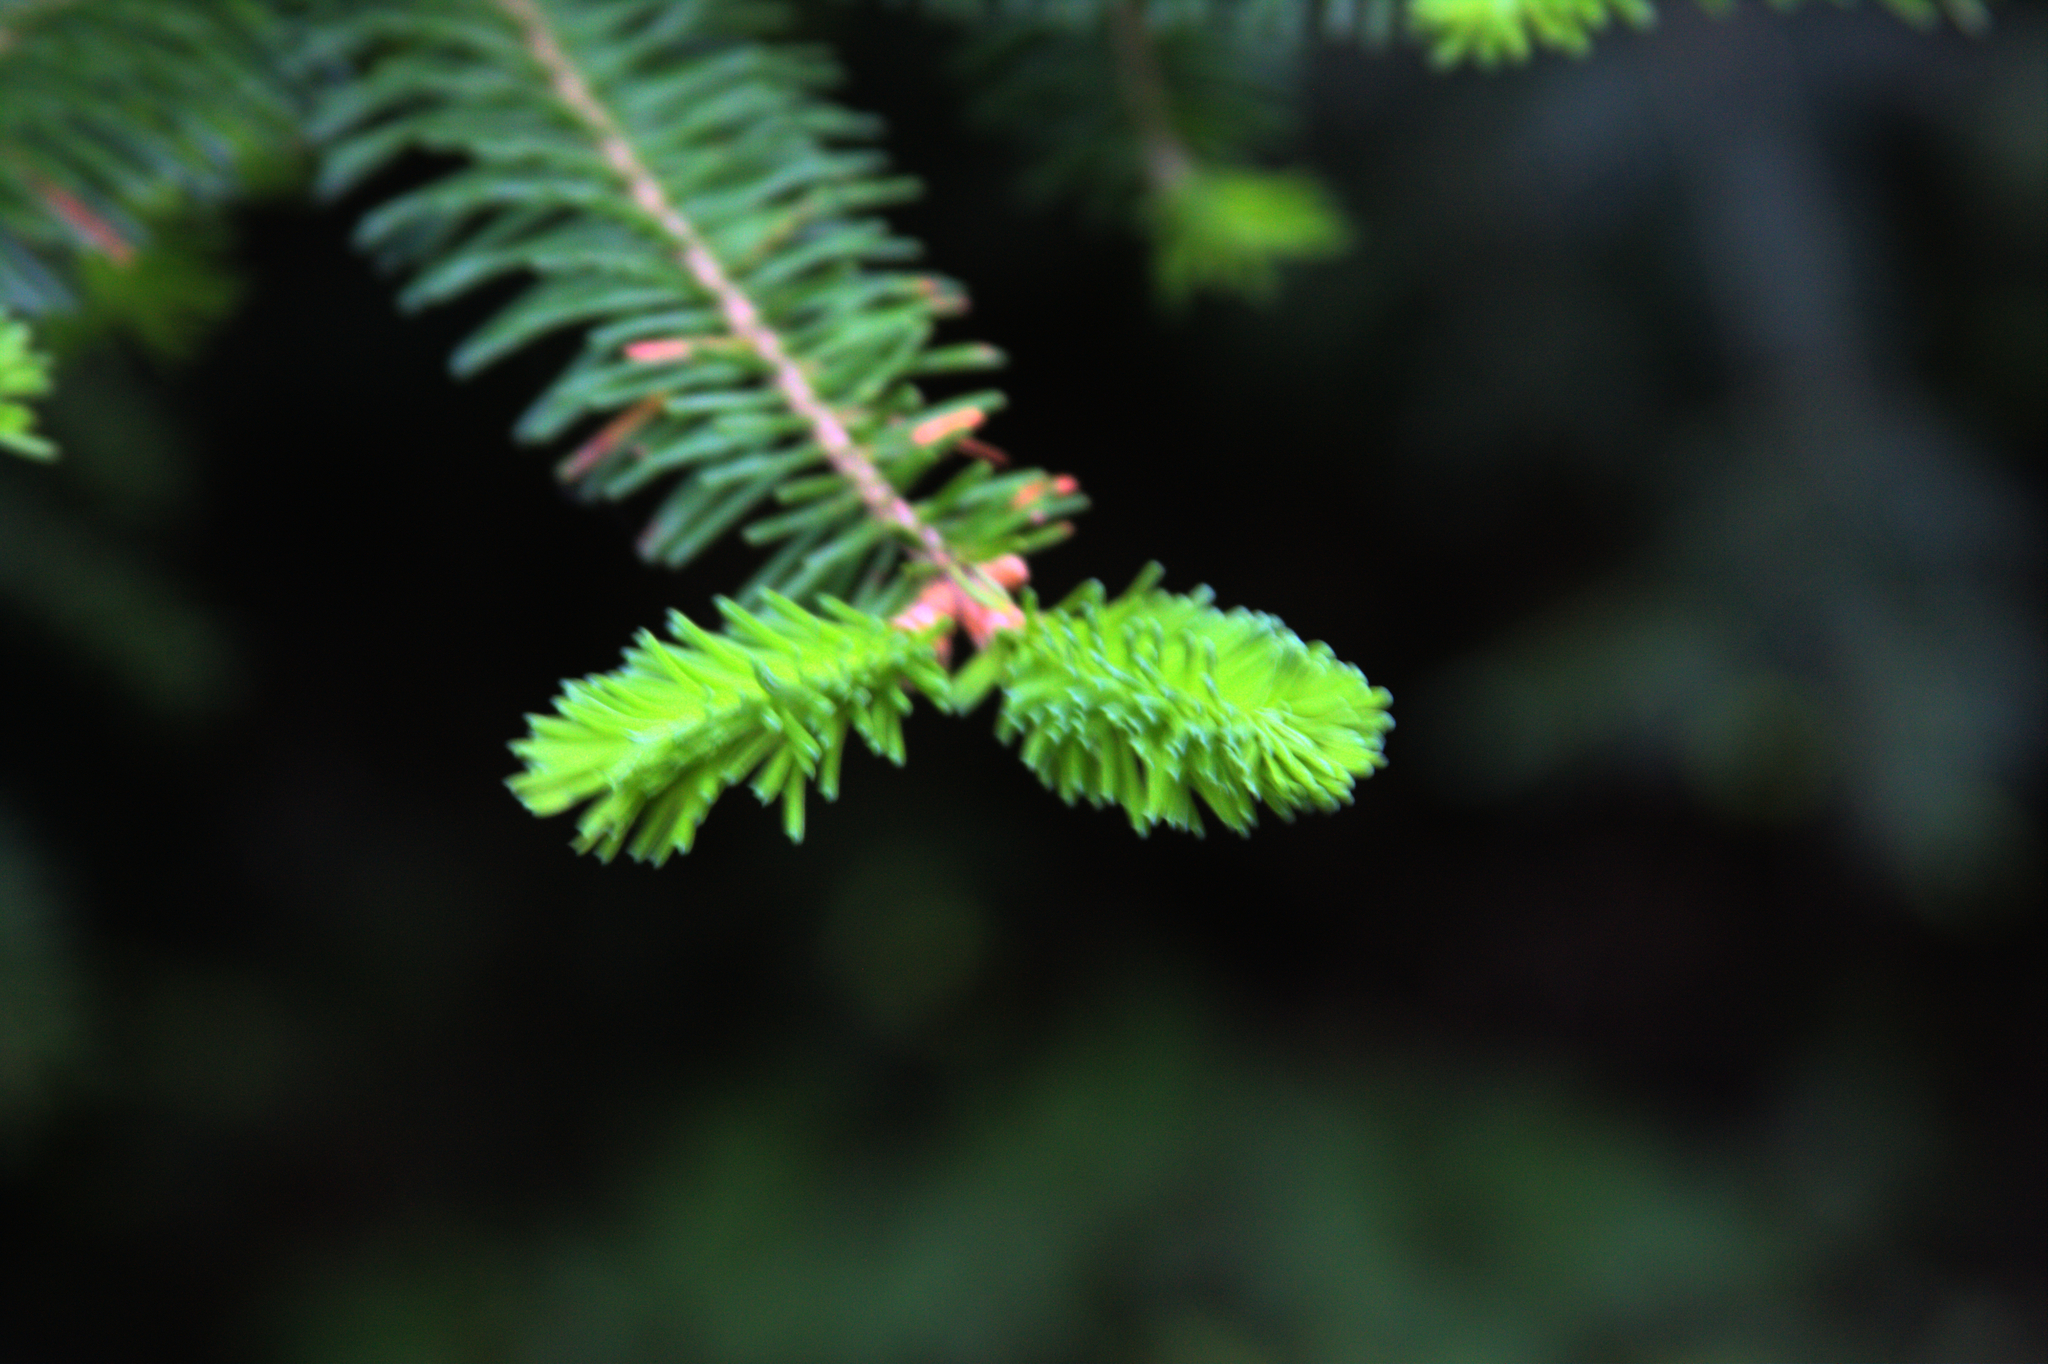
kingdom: Plantae
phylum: Tracheophyta
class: Pinopsida
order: Pinales
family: Pinaceae
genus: Abies
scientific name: Abies balsamea
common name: Balsam fir
